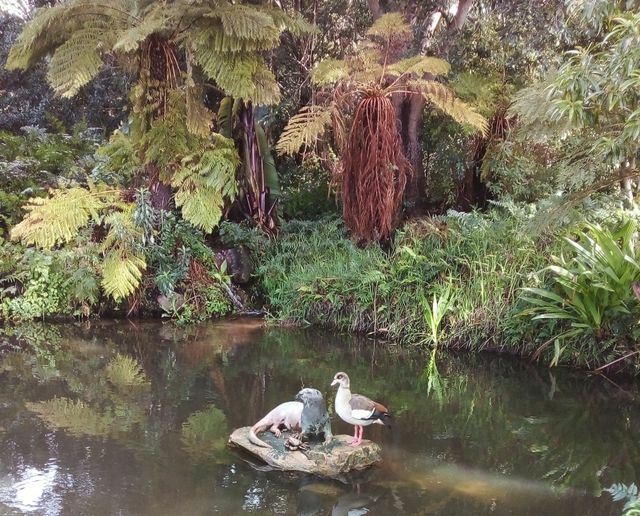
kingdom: Animalia
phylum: Chordata
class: Aves
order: Anseriformes
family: Anatidae
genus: Alopochen
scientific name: Alopochen aegyptiaca
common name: Egyptian goose
